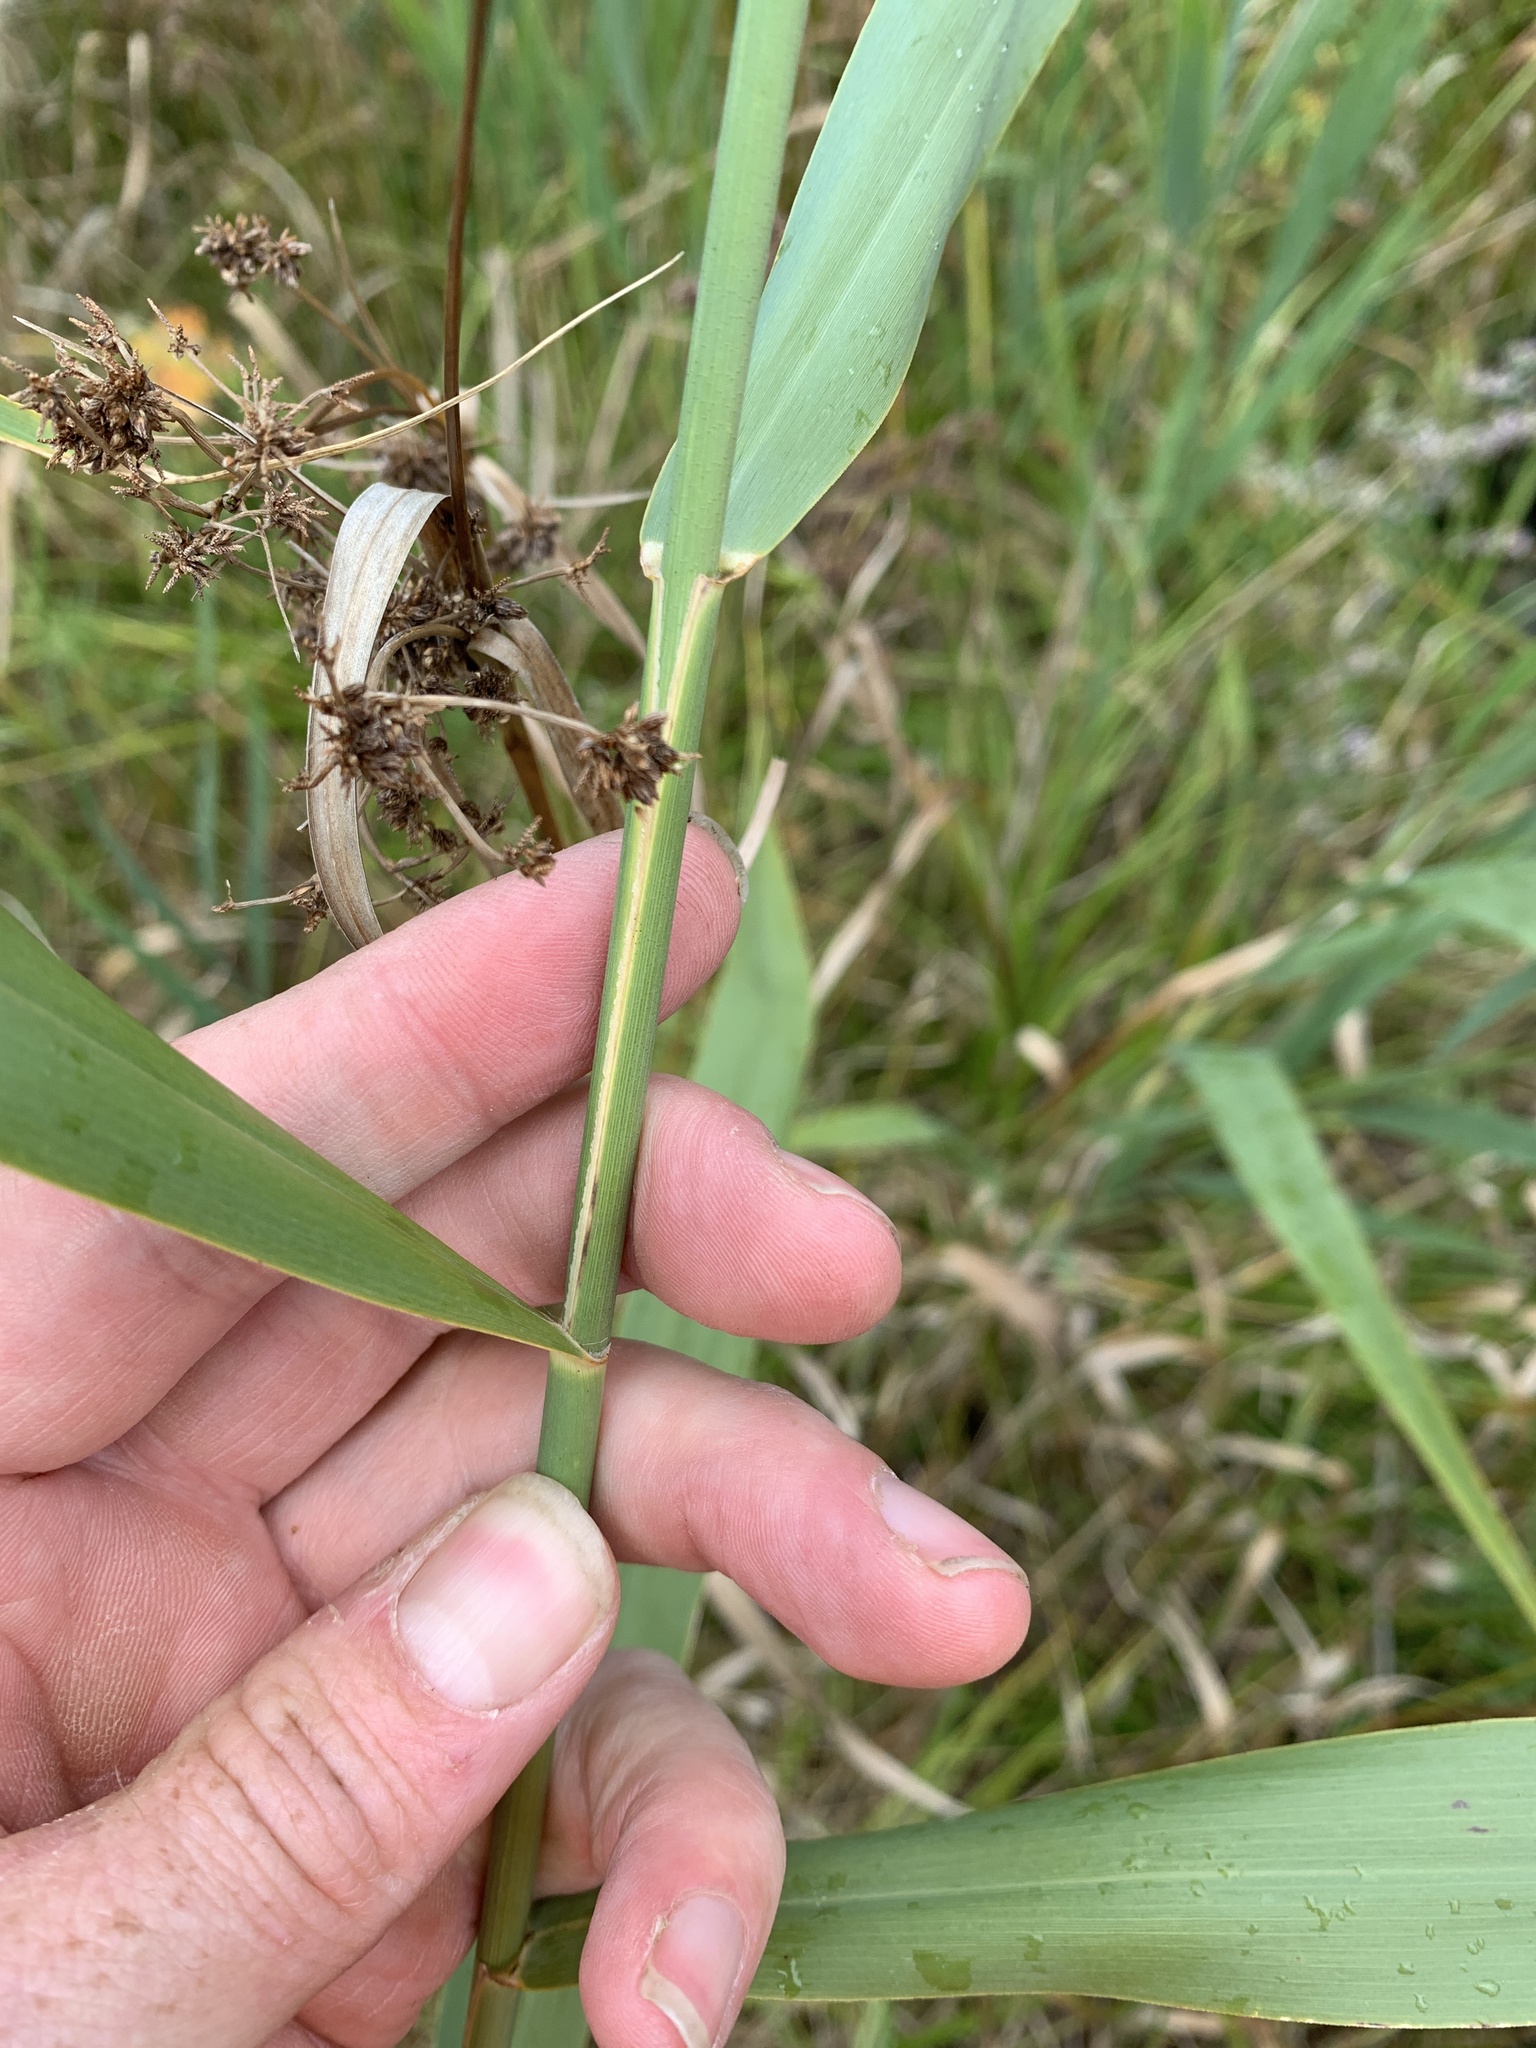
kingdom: Plantae
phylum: Tracheophyta
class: Liliopsida
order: Poales
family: Poaceae
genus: Phragmites
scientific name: Phragmites australis
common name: Common reed
